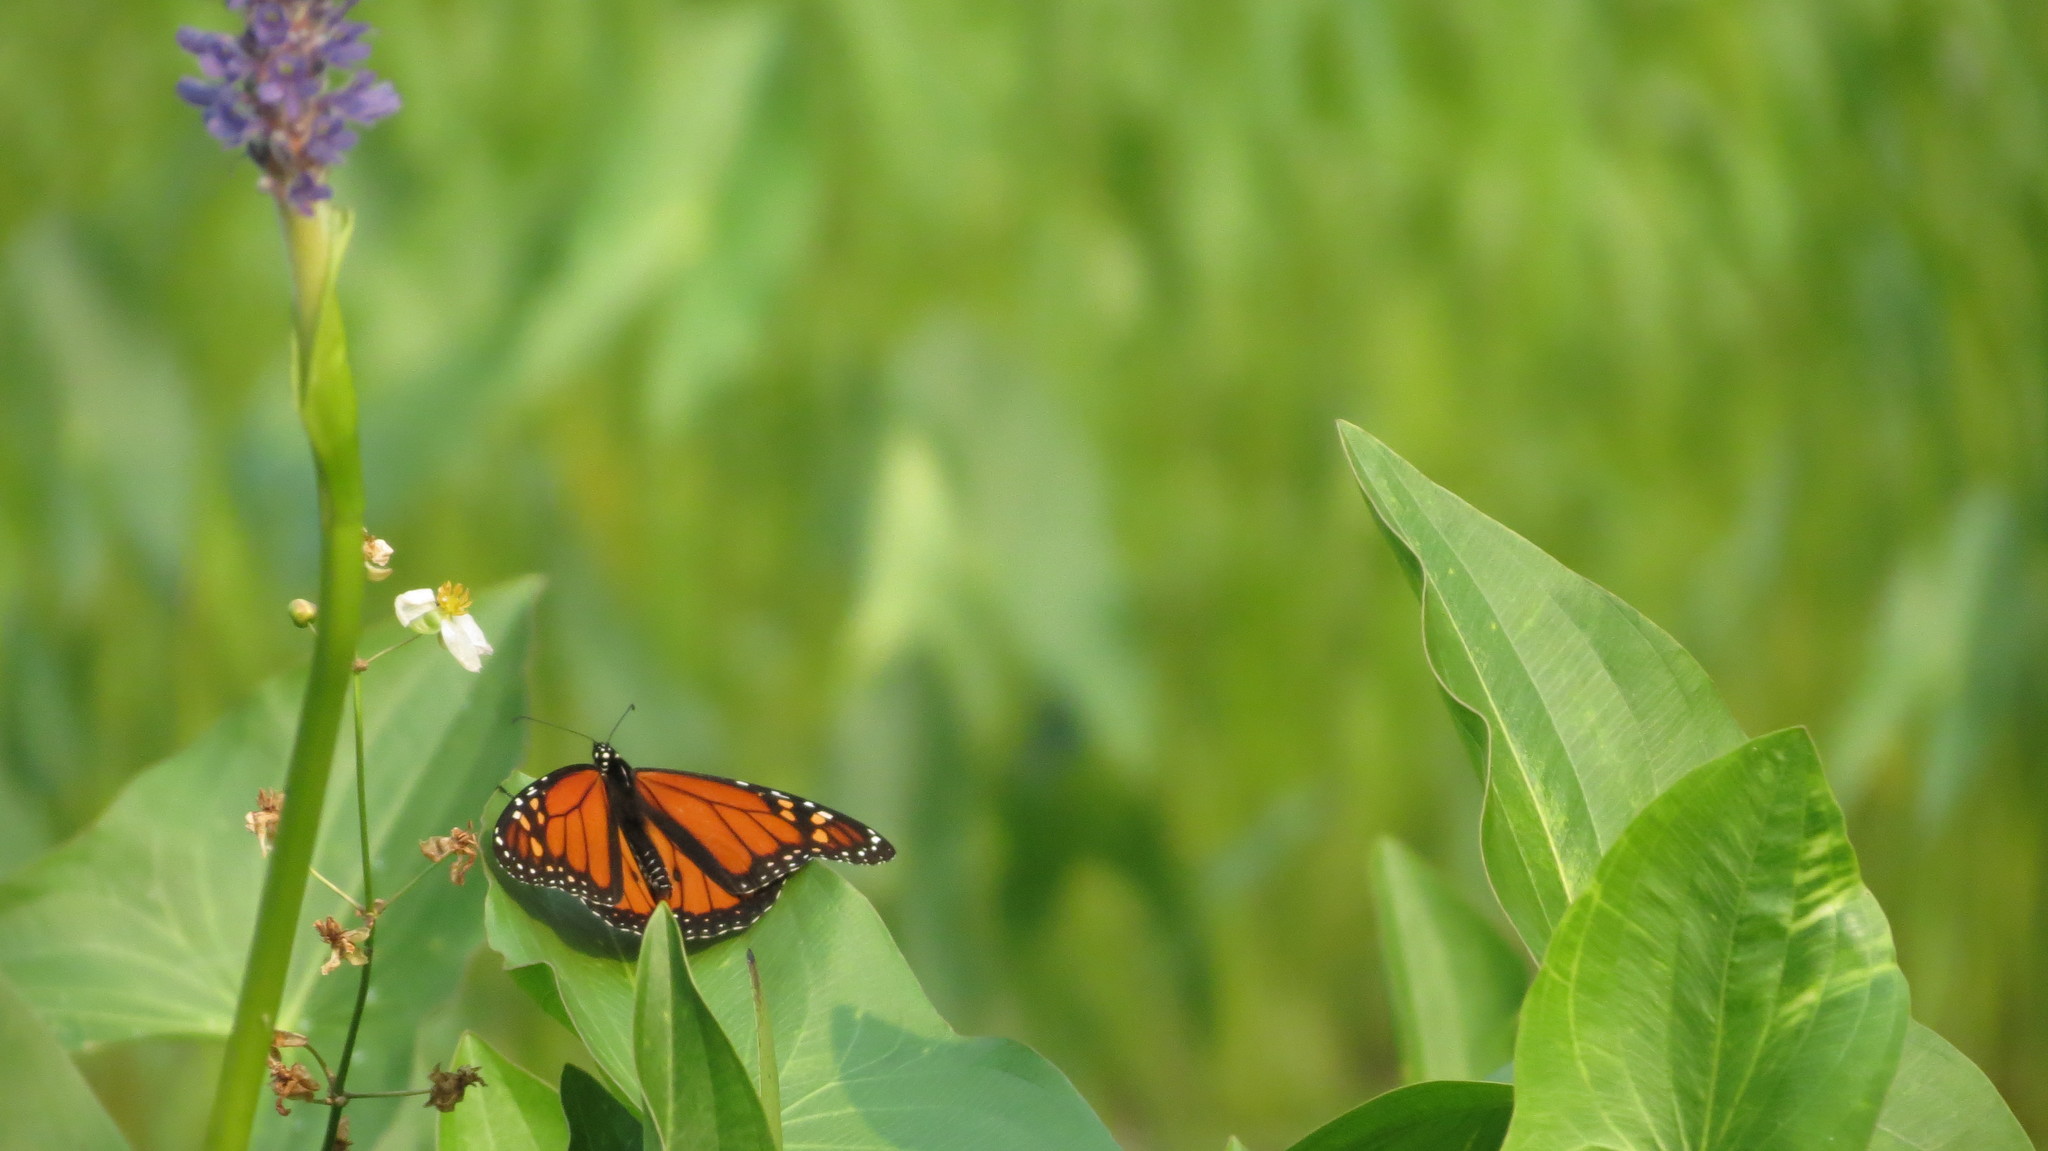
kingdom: Animalia
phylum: Arthropoda
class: Insecta
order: Lepidoptera
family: Nymphalidae
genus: Danaus
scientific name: Danaus plexippus
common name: Monarch
